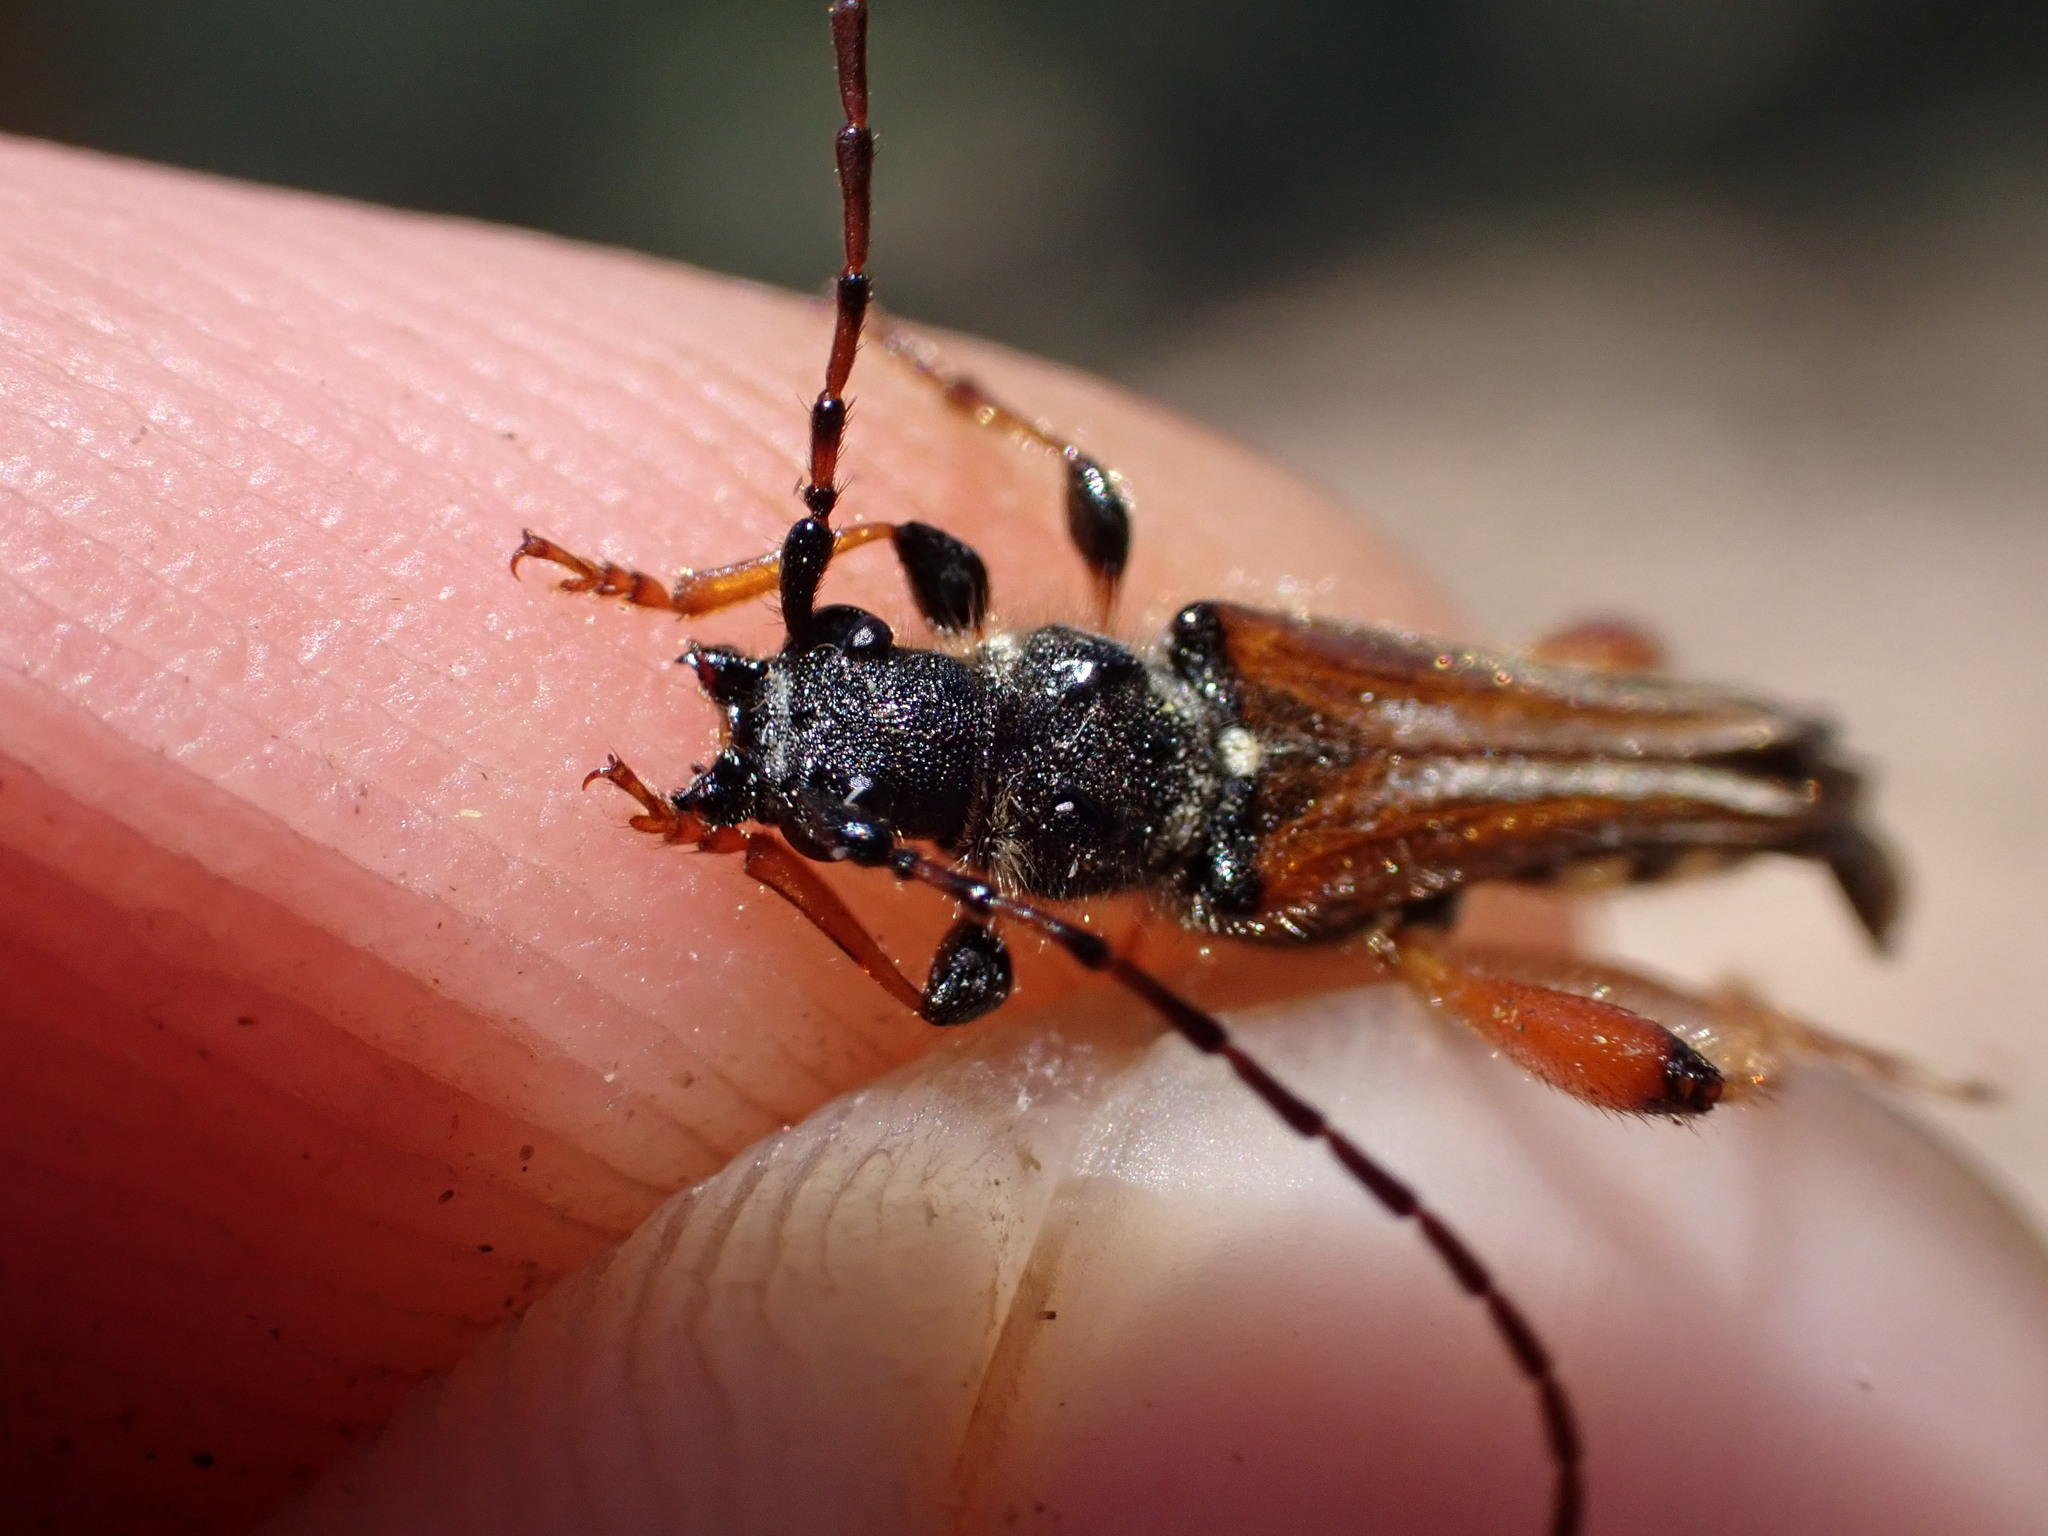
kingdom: Animalia
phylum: Arthropoda
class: Insecta
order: Coleoptera
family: Cerambycidae
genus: Stenopterus
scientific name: Stenopterus rufus
